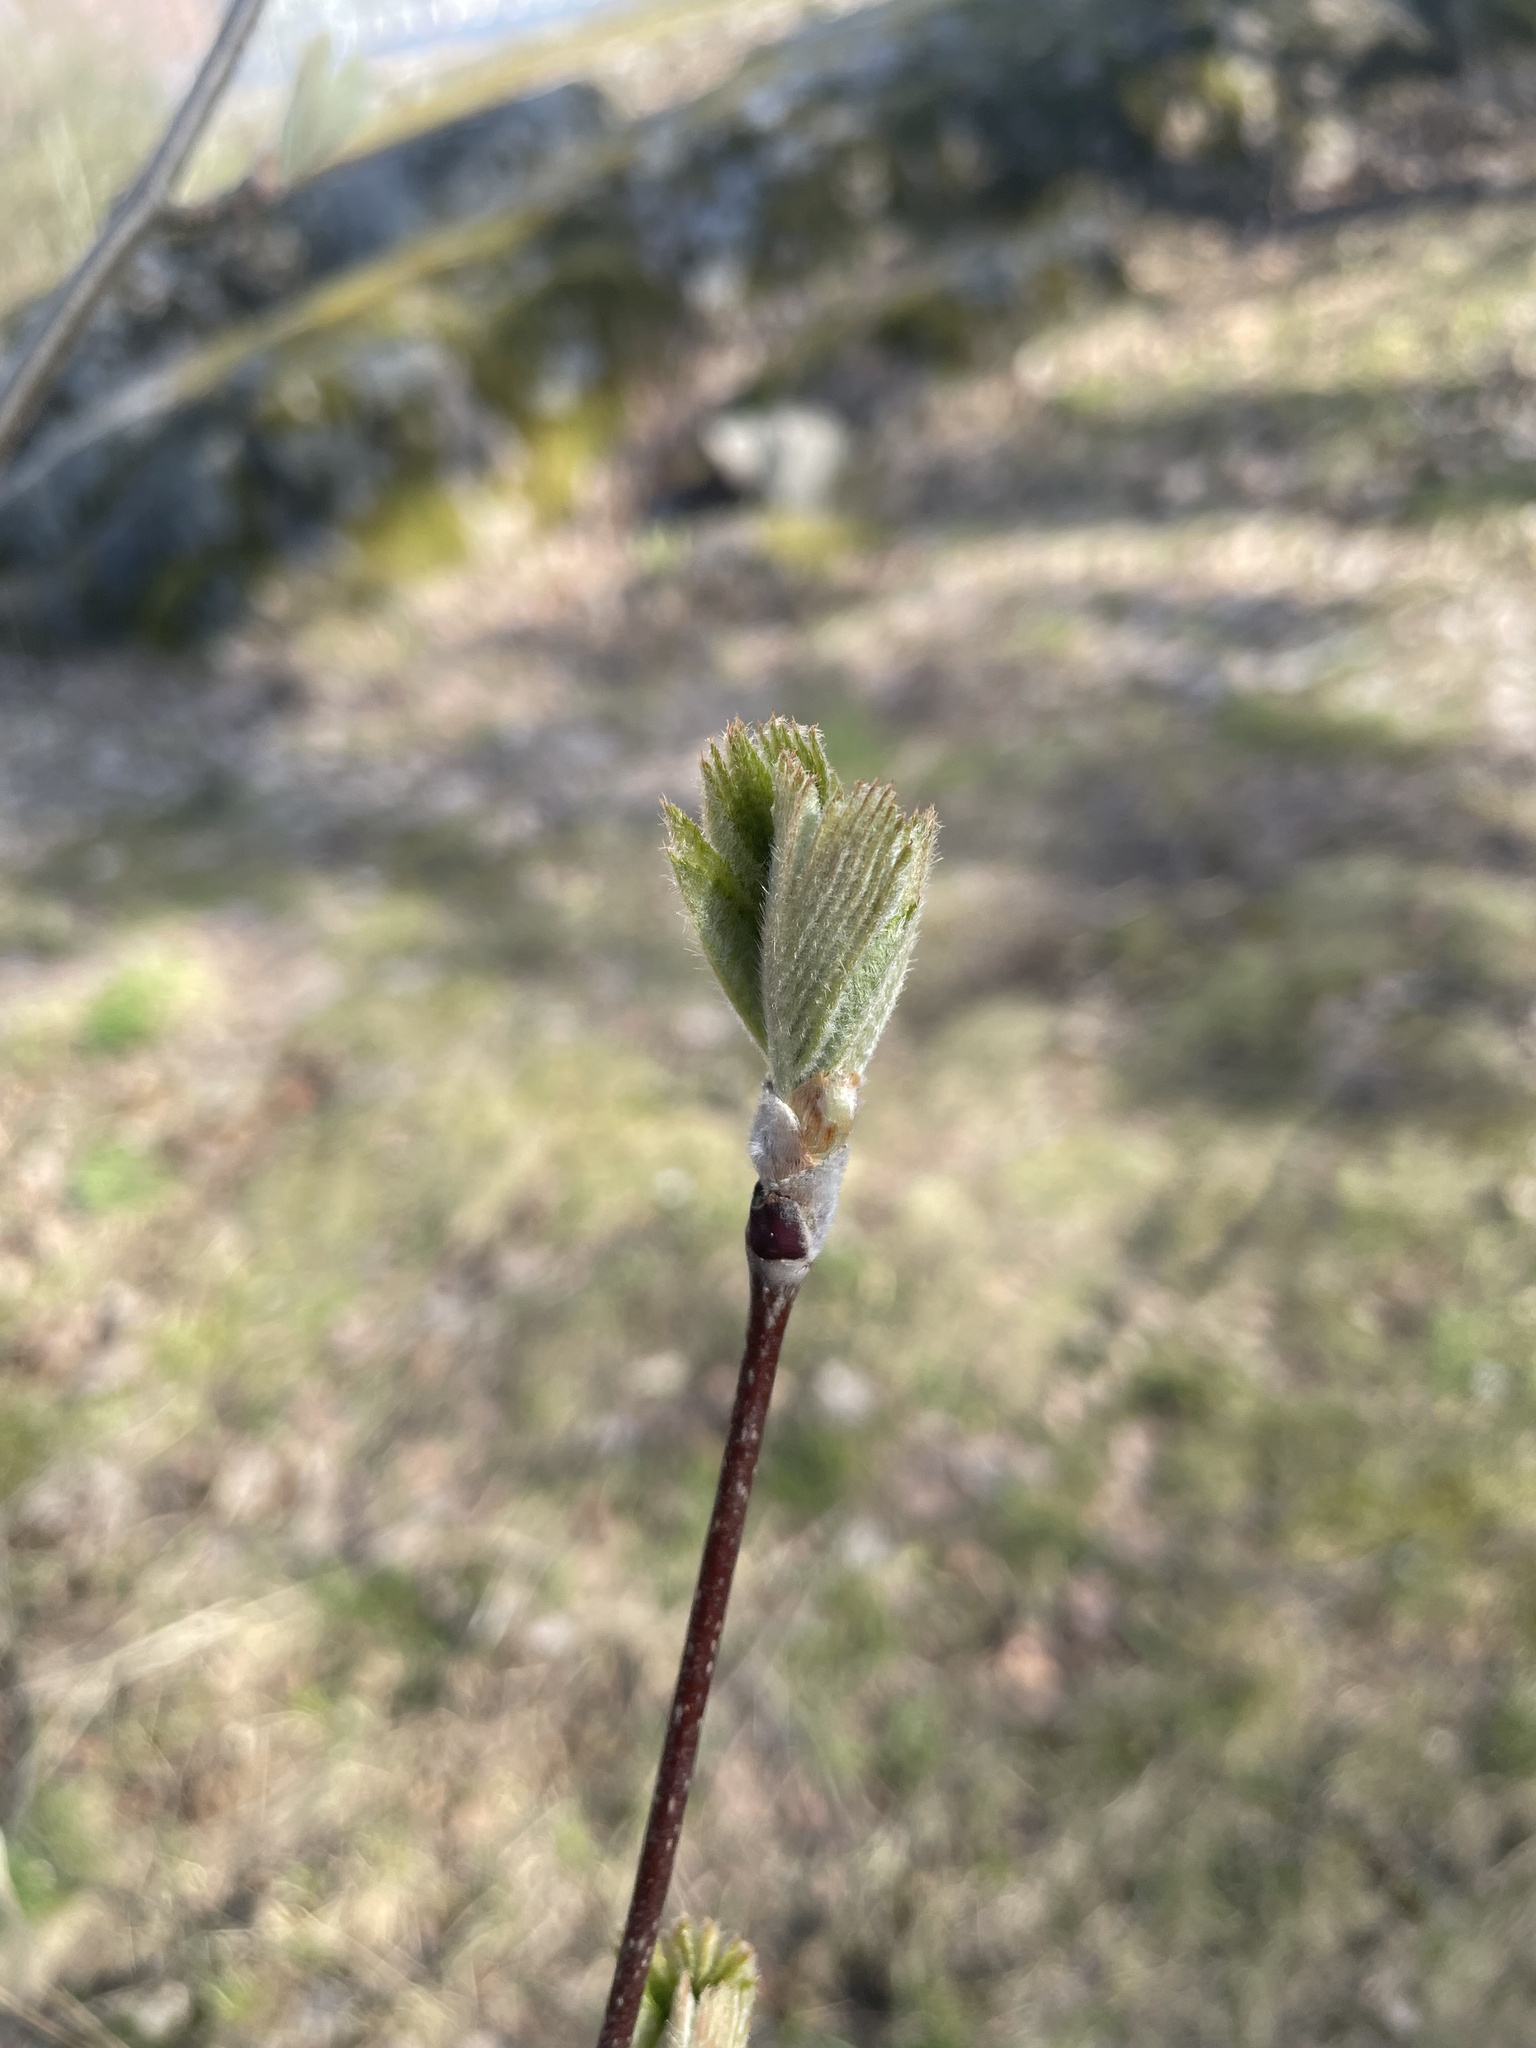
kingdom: Plantae
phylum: Tracheophyta
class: Magnoliopsida
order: Rosales
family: Rosaceae
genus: Sorbus
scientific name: Sorbus aucuparia
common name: Rowan
